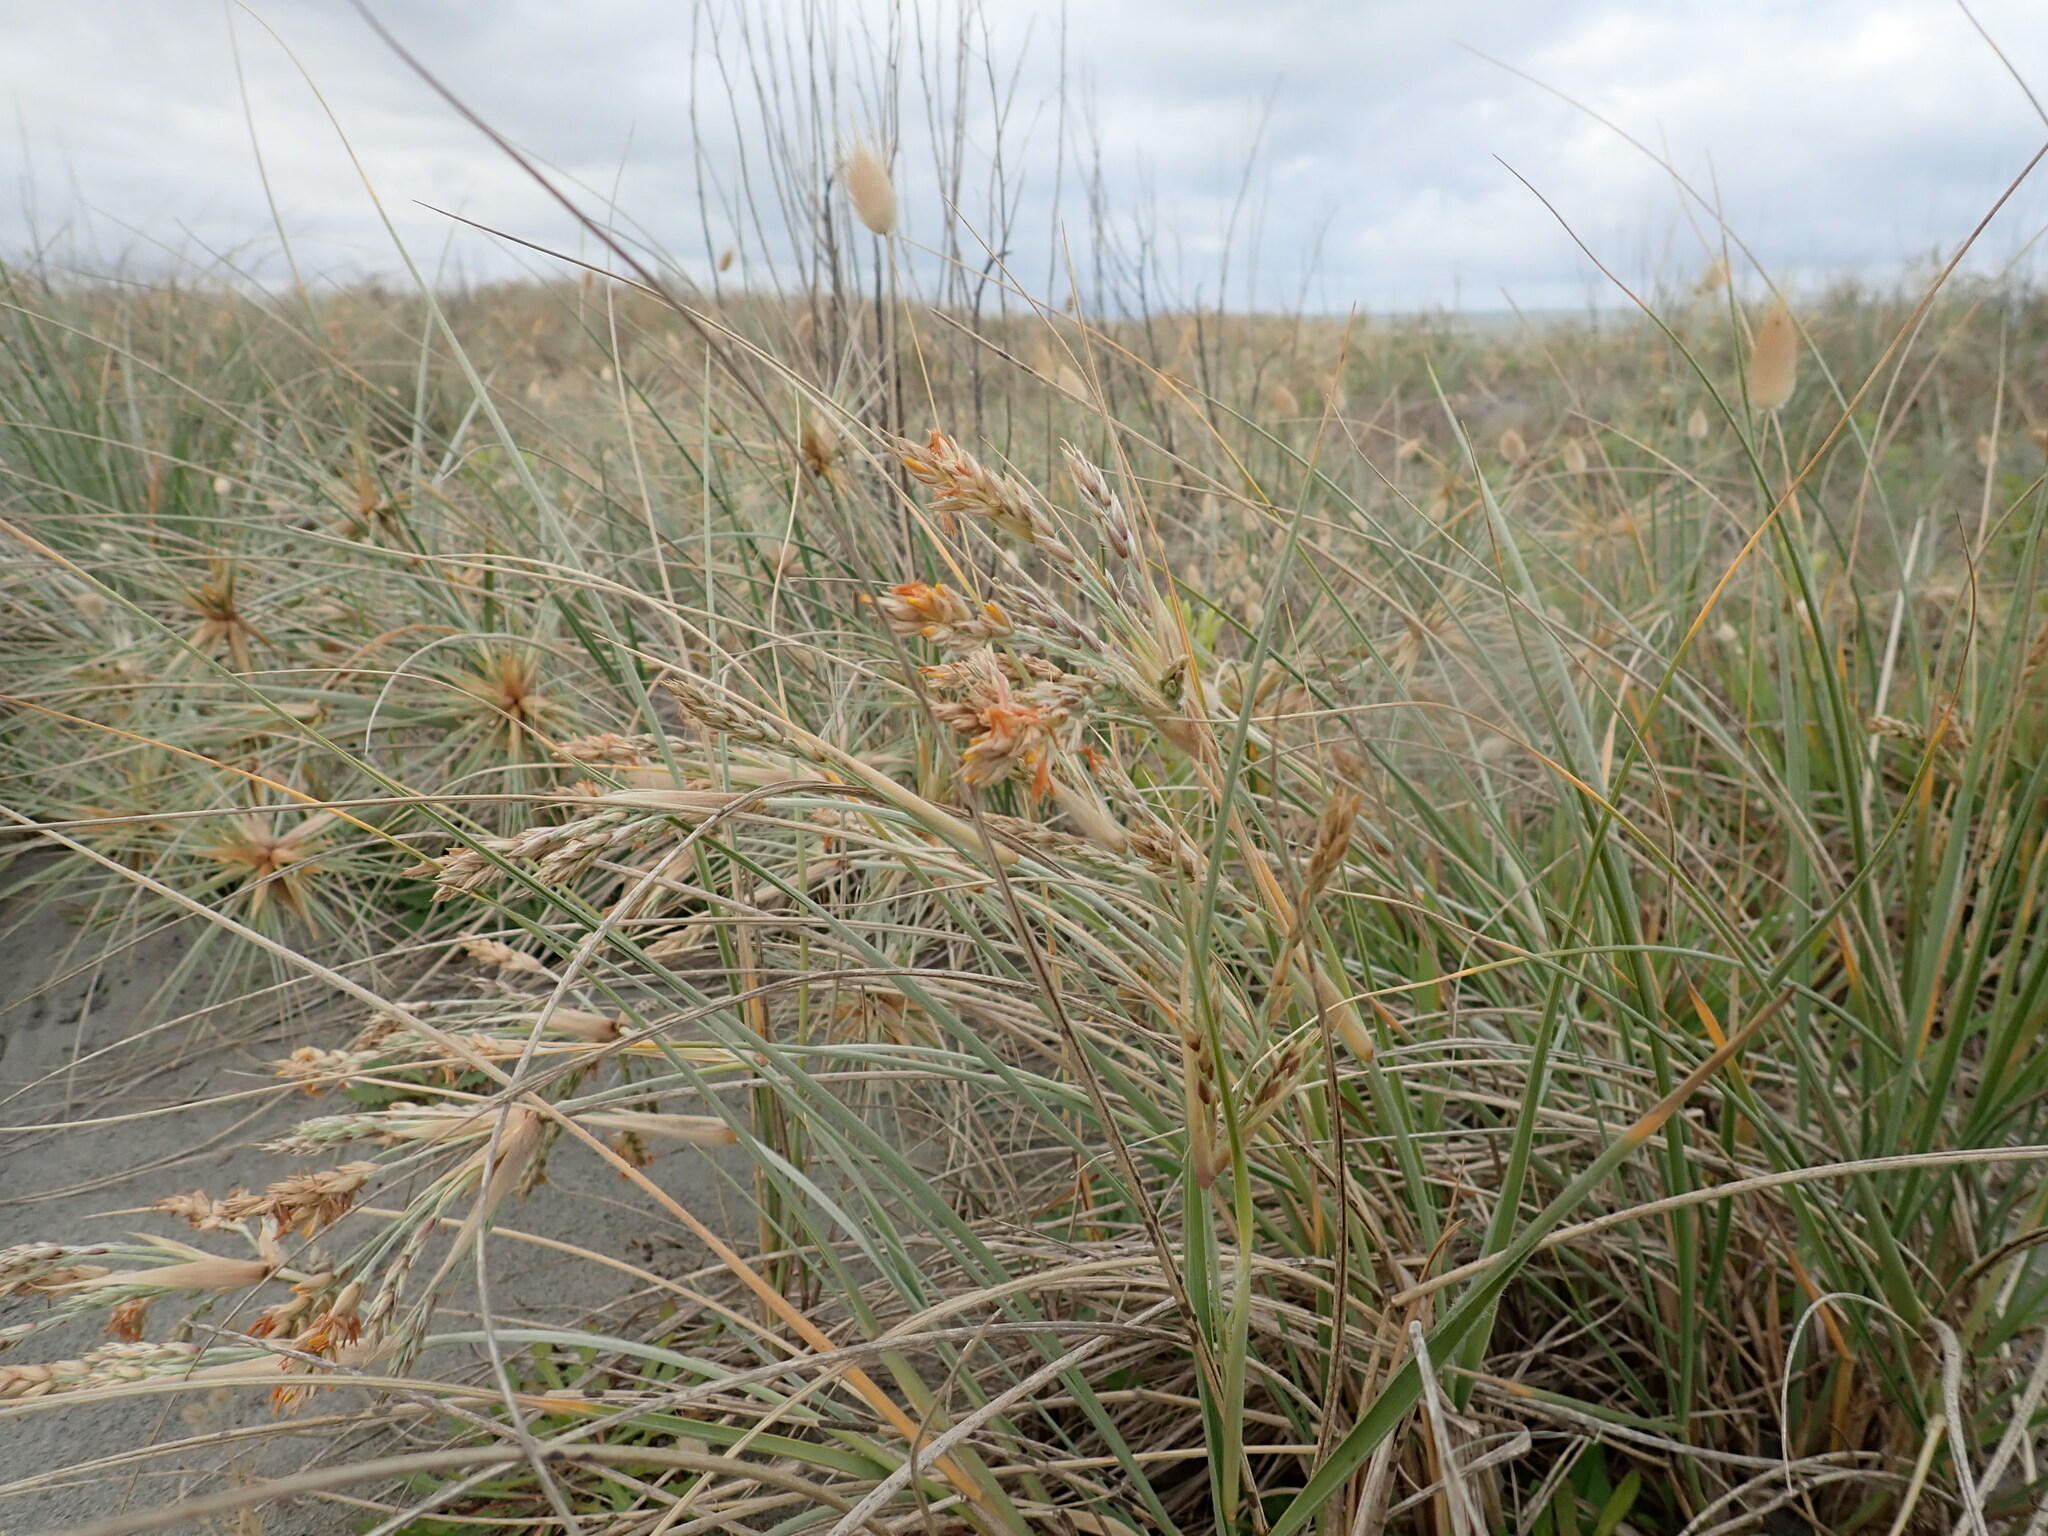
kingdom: Plantae
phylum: Tracheophyta
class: Liliopsida
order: Poales
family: Poaceae
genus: Spinifex
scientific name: Spinifex sericeus
